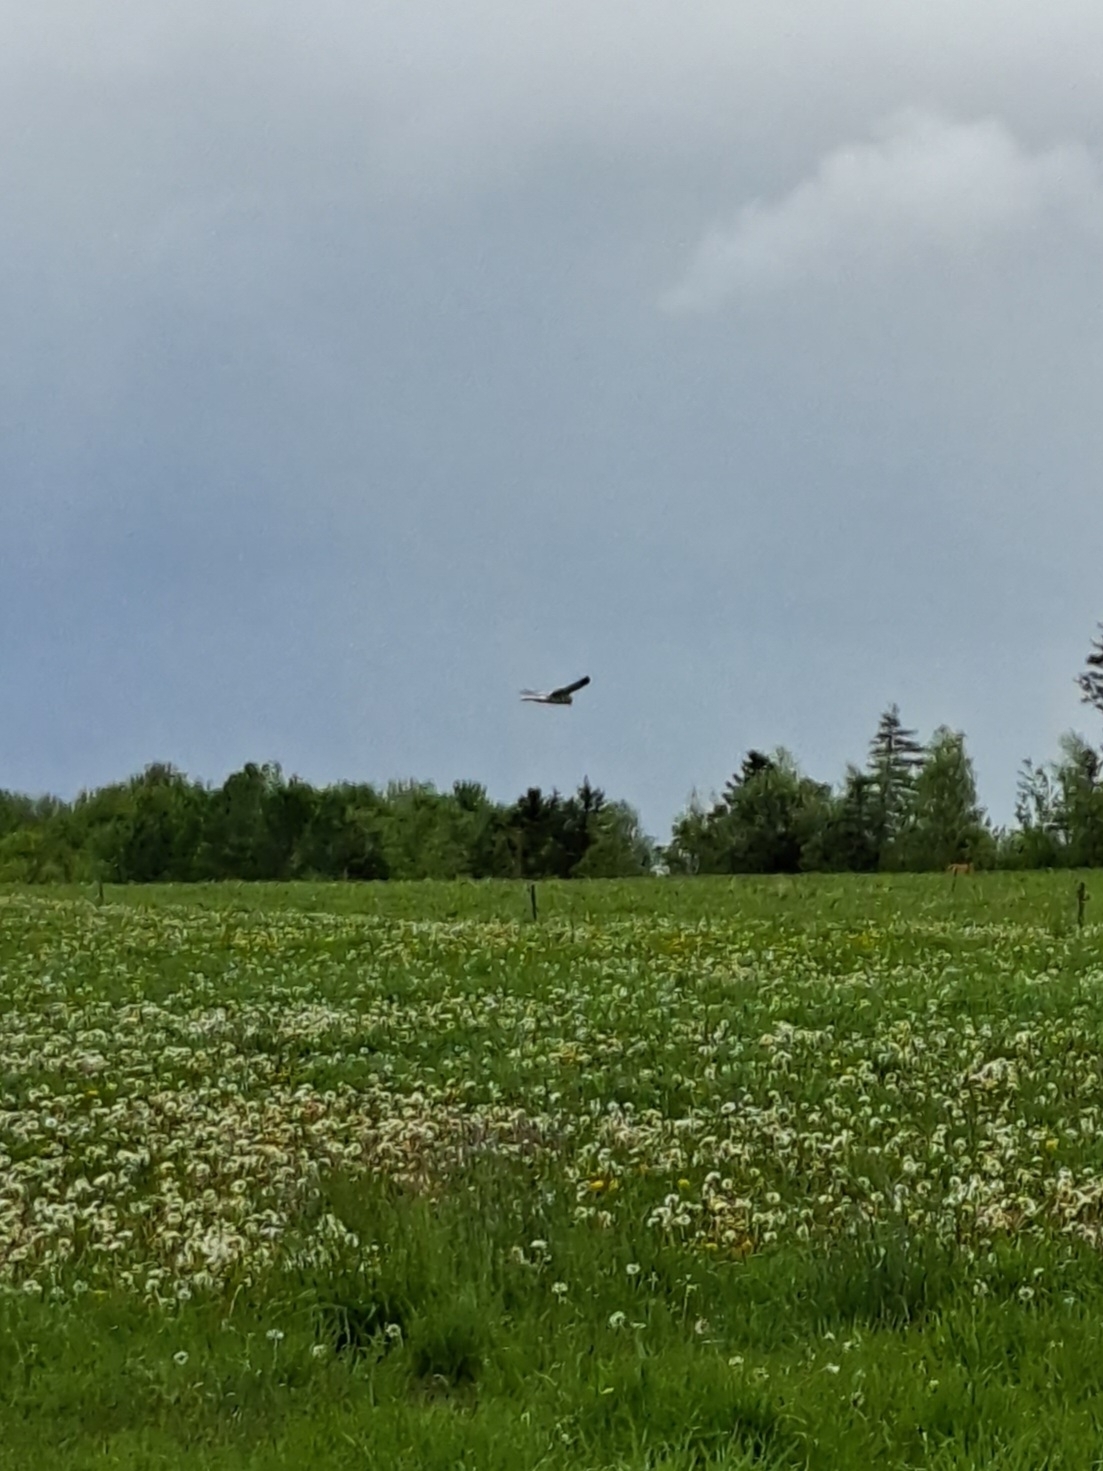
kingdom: Animalia
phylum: Chordata
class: Aves
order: Accipitriformes
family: Accipitridae
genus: Circus
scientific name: Circus cyaneus
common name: Hen harrier
